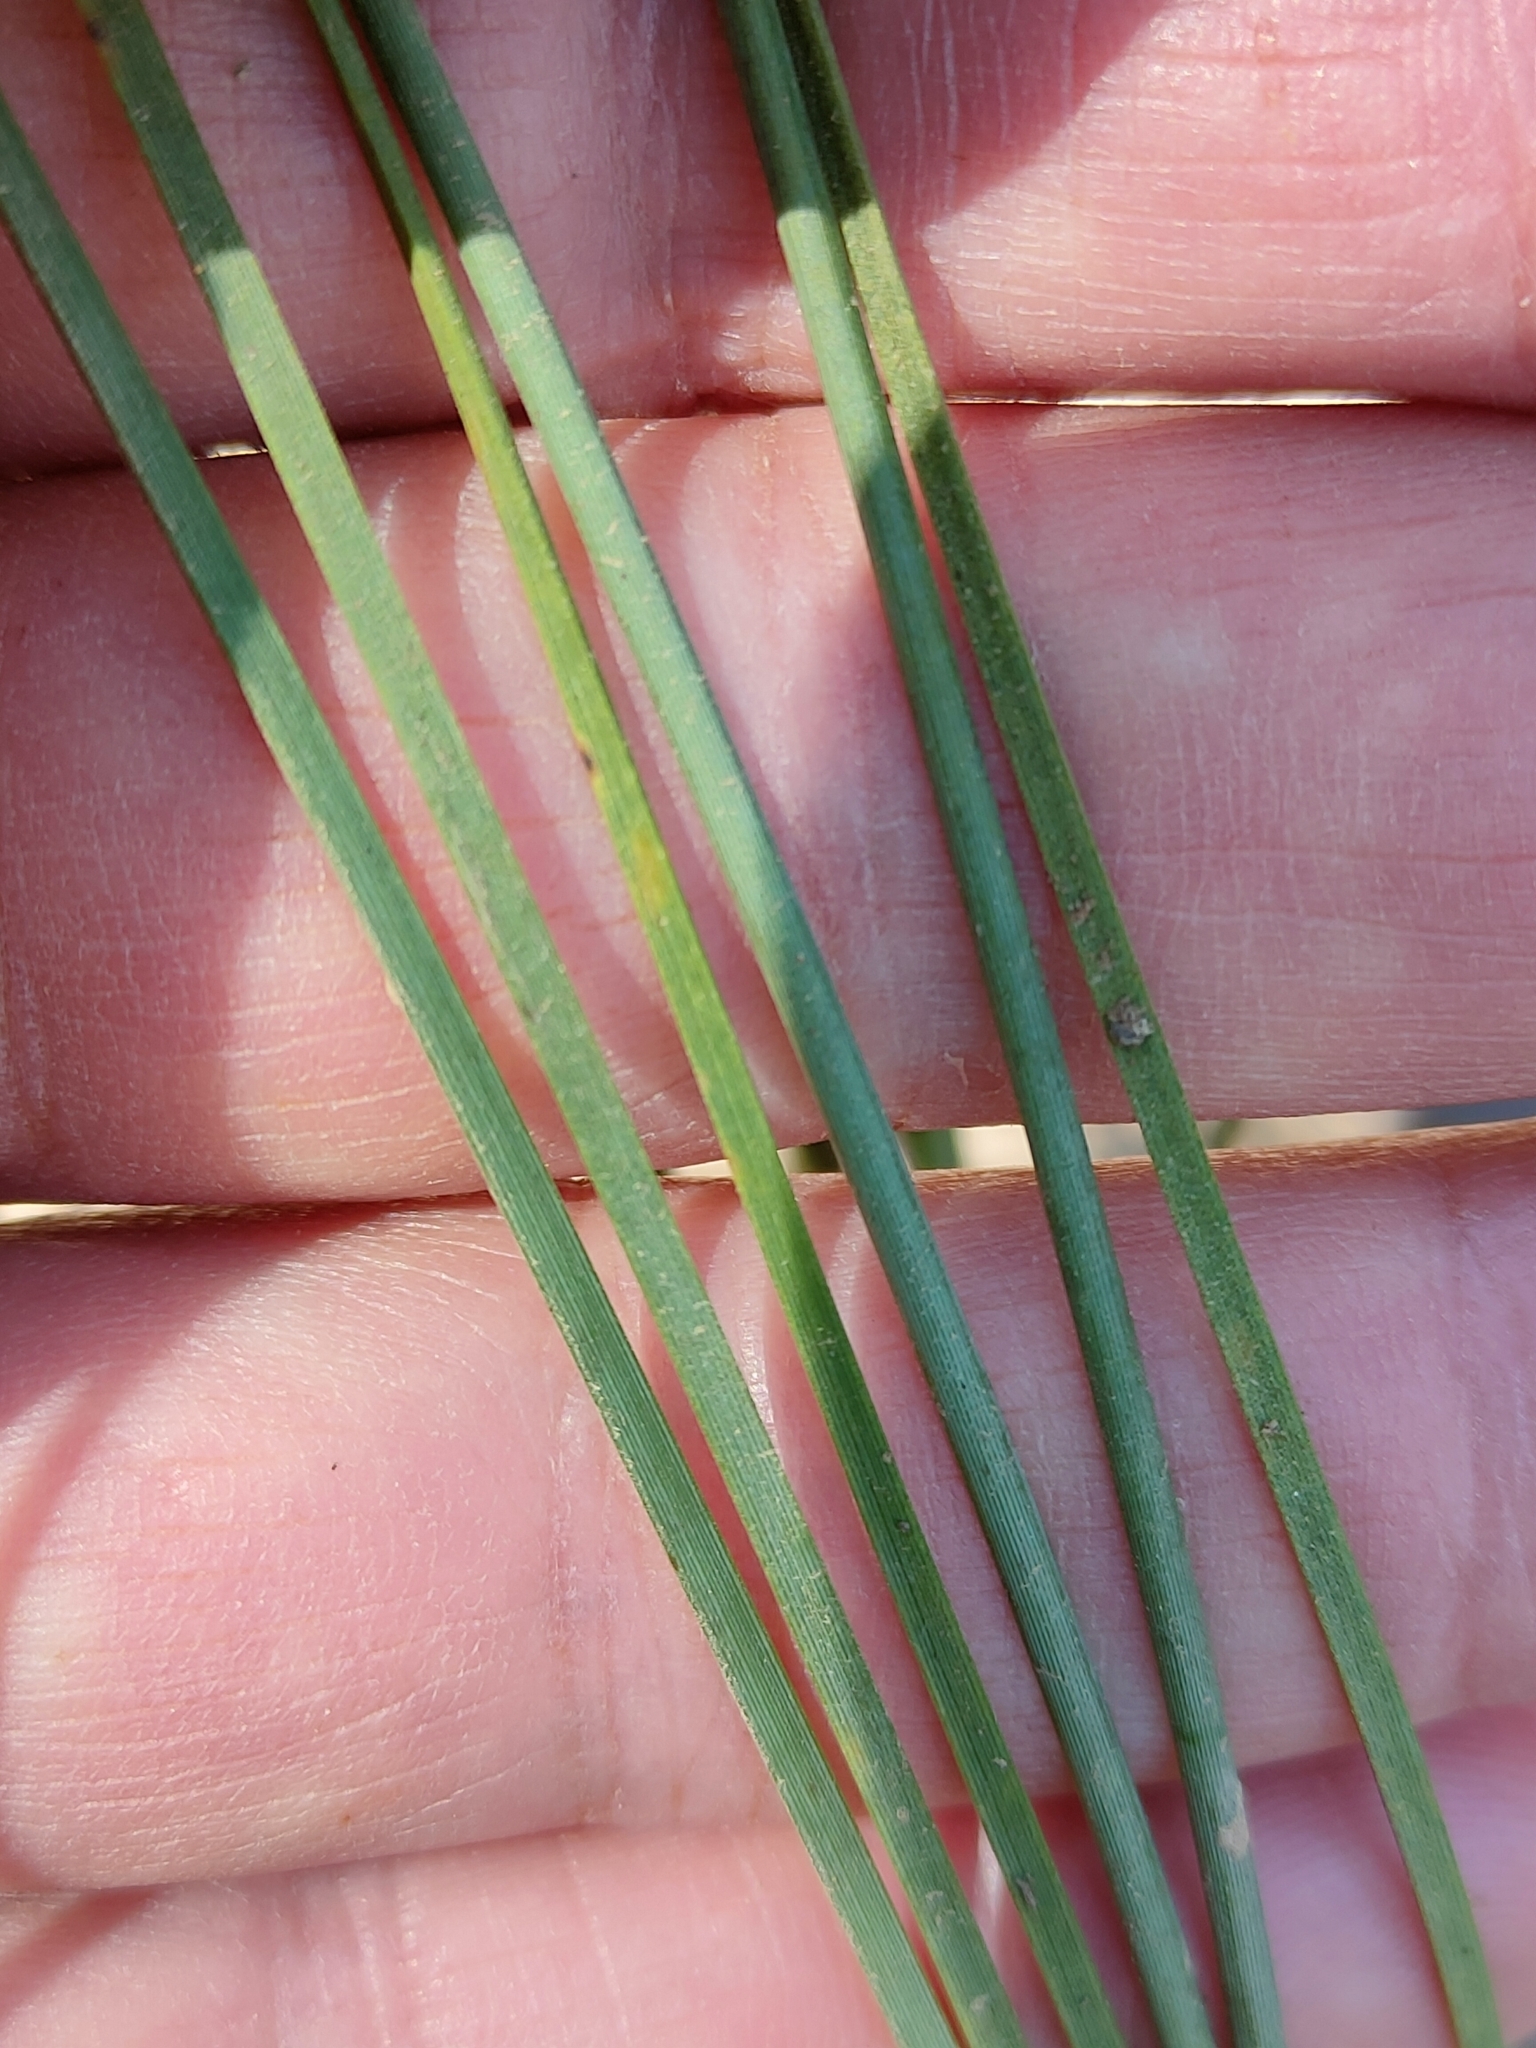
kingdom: Plantae
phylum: Tracheophyta
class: Liliopsida
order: Asparagales
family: Asparagaceae
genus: Lomandra
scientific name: Lomandra multiflora
